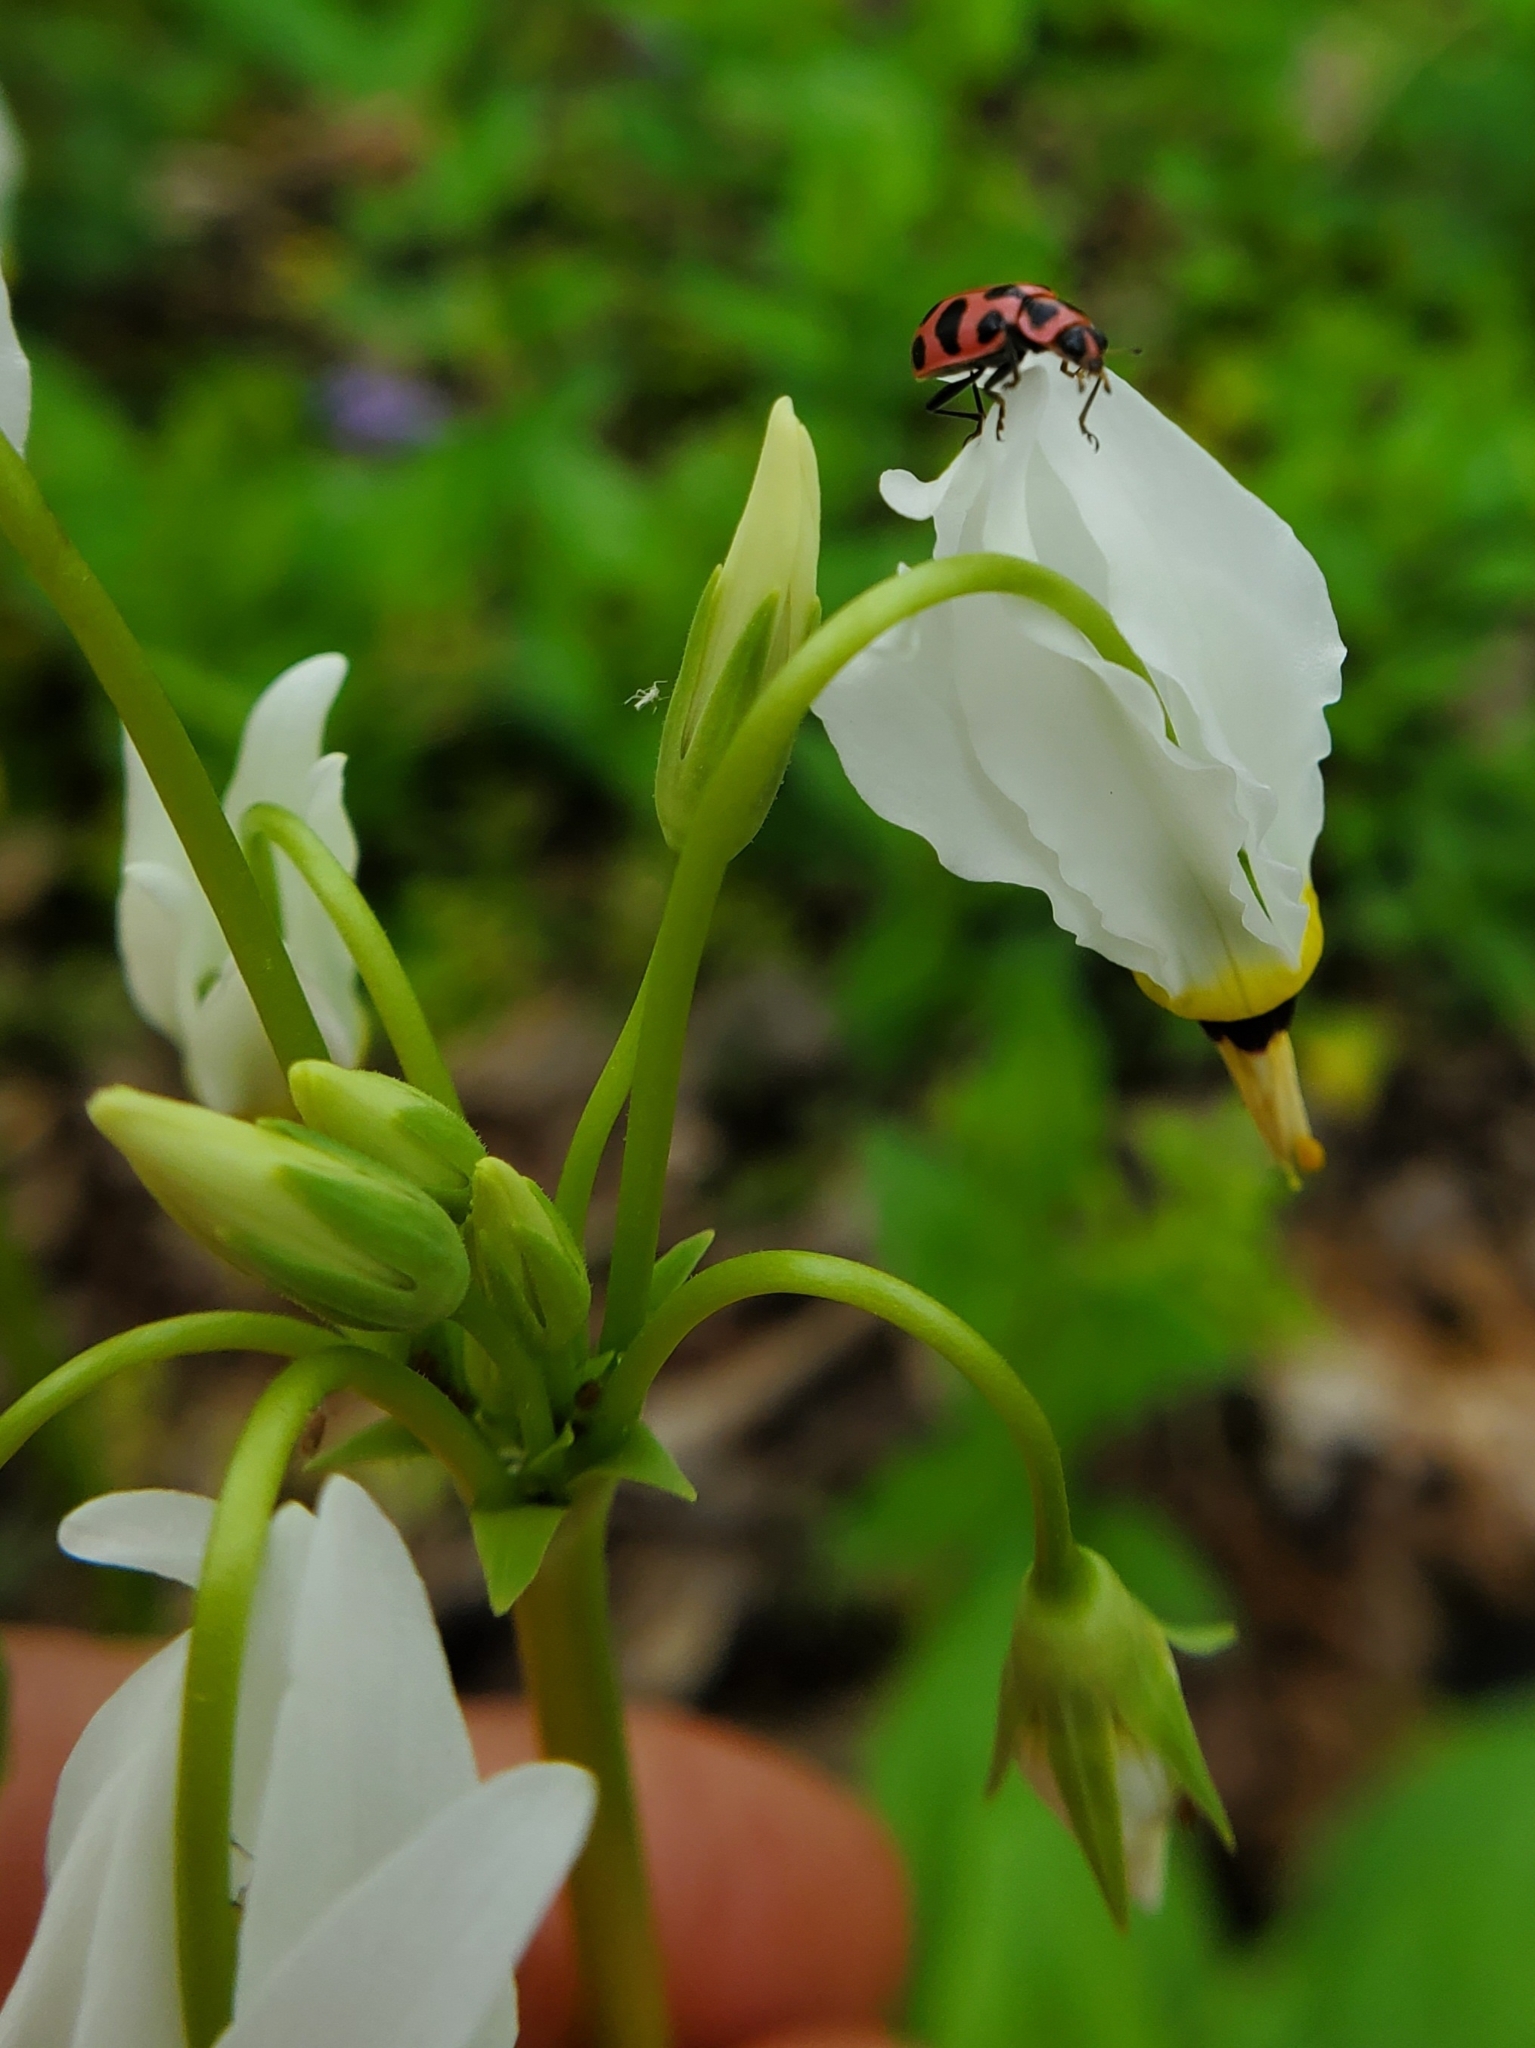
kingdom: Animalia
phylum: Arthropoda
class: Insecta
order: Coleoptera
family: Coccinellidae
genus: Coleomegilla
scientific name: Coleomegilla maculata
